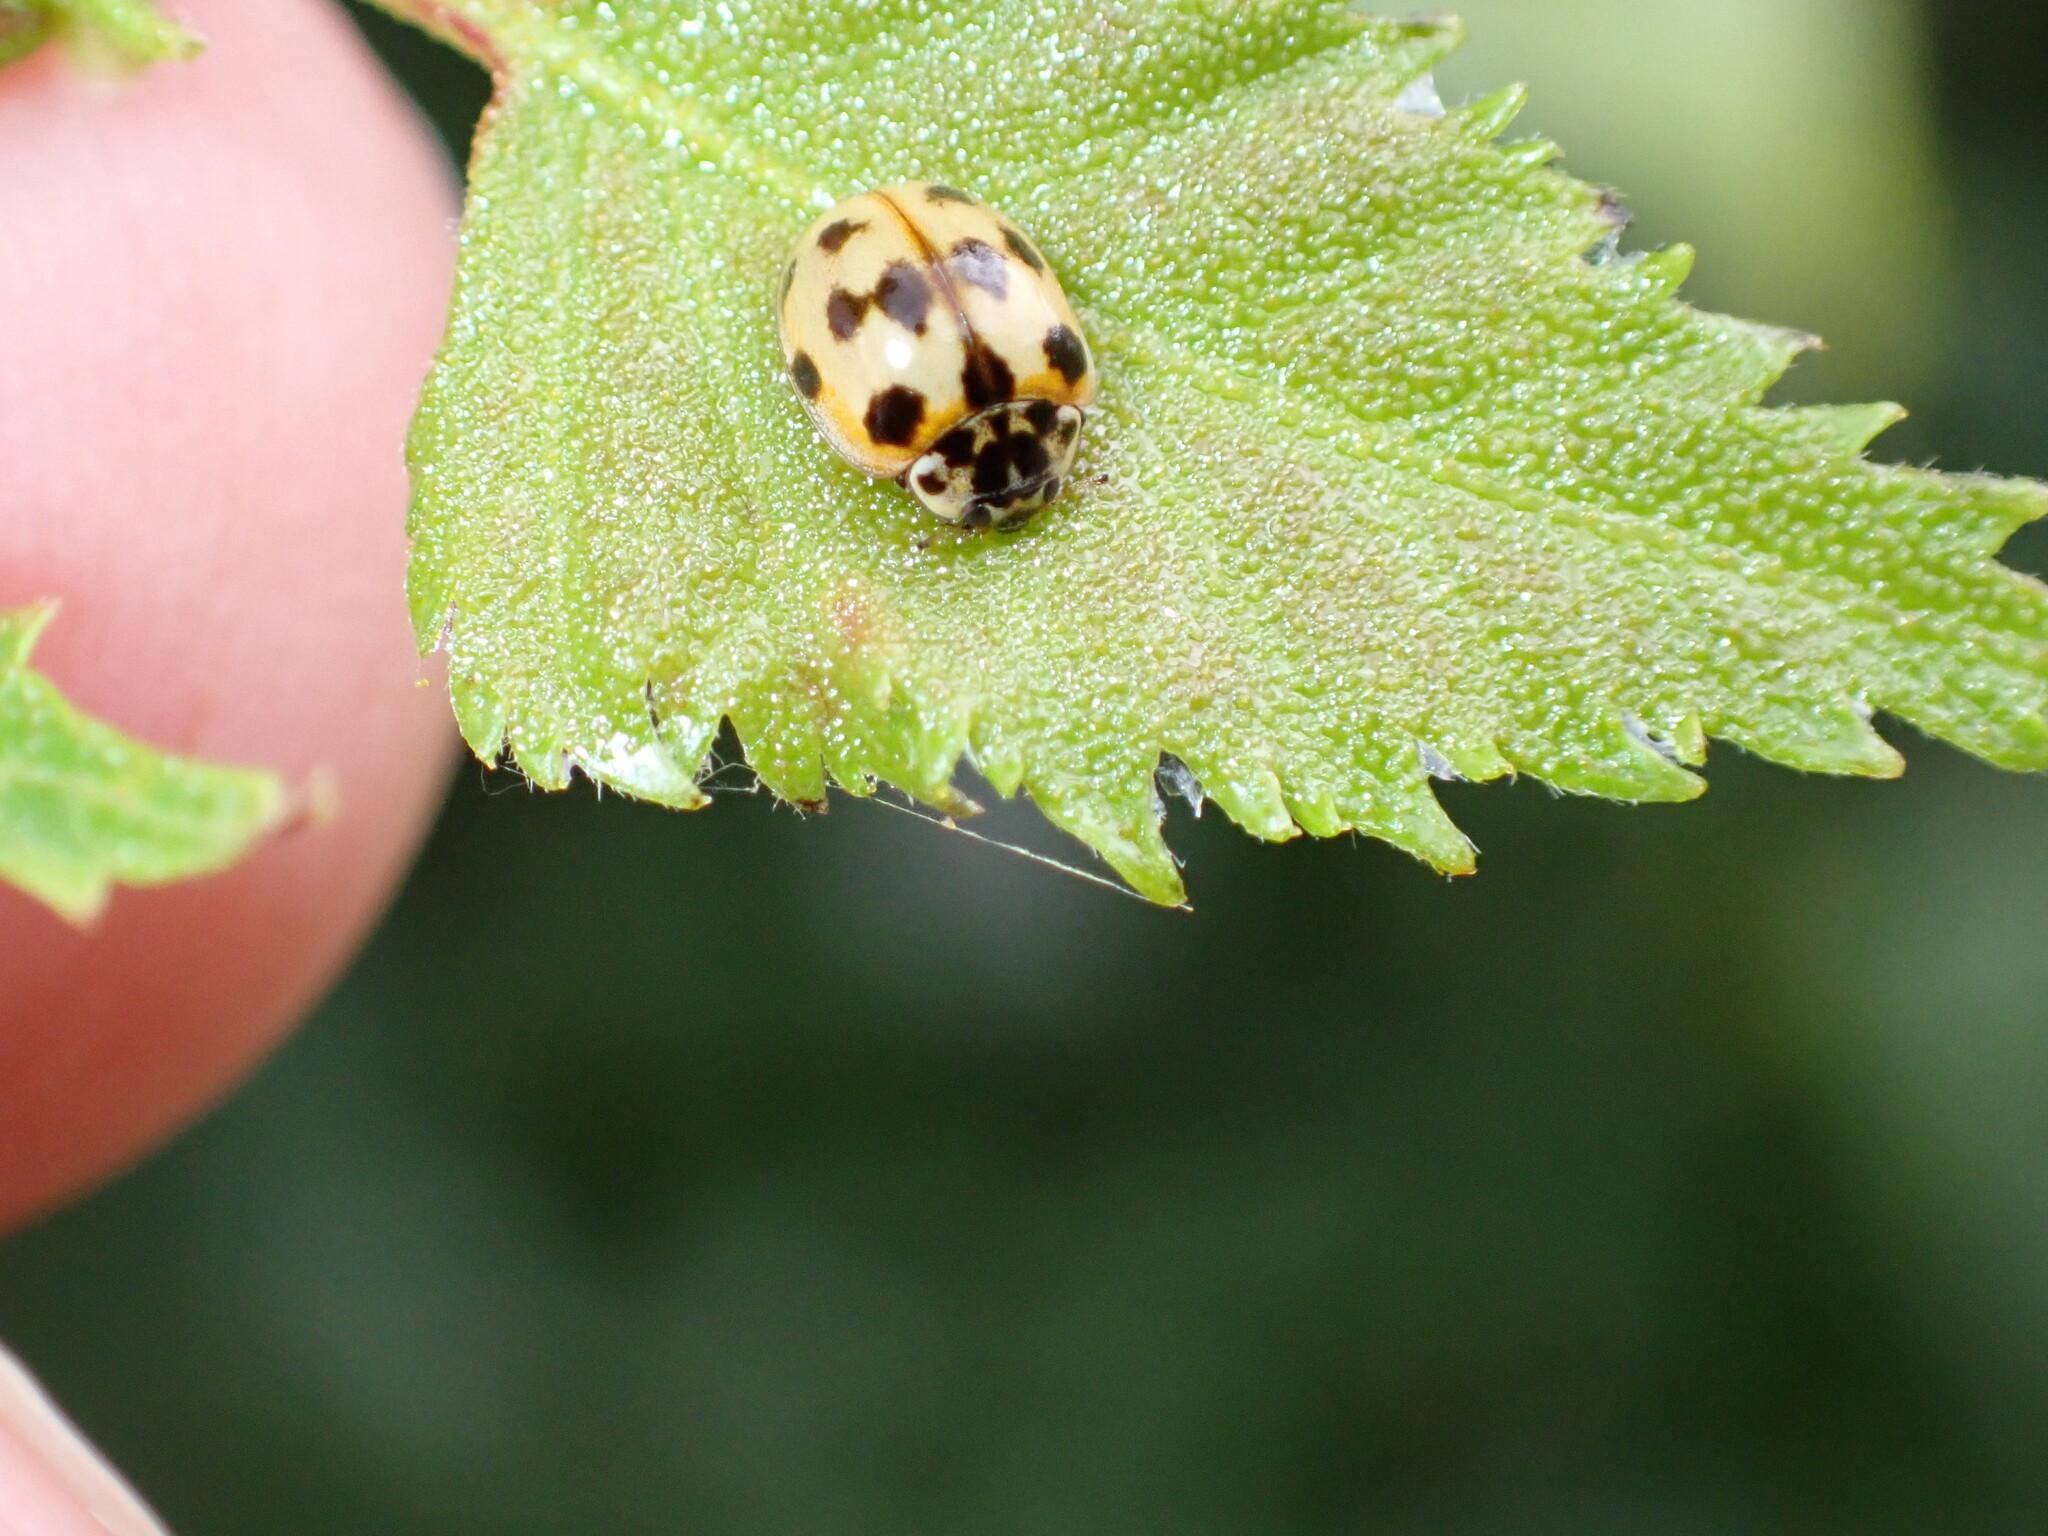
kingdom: Animalia
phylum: Arthropoda
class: Insecta
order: Coleoptera
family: Coccinellidae
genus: Adalia
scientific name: Adalia decempunctata
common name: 10-spot ladybird
